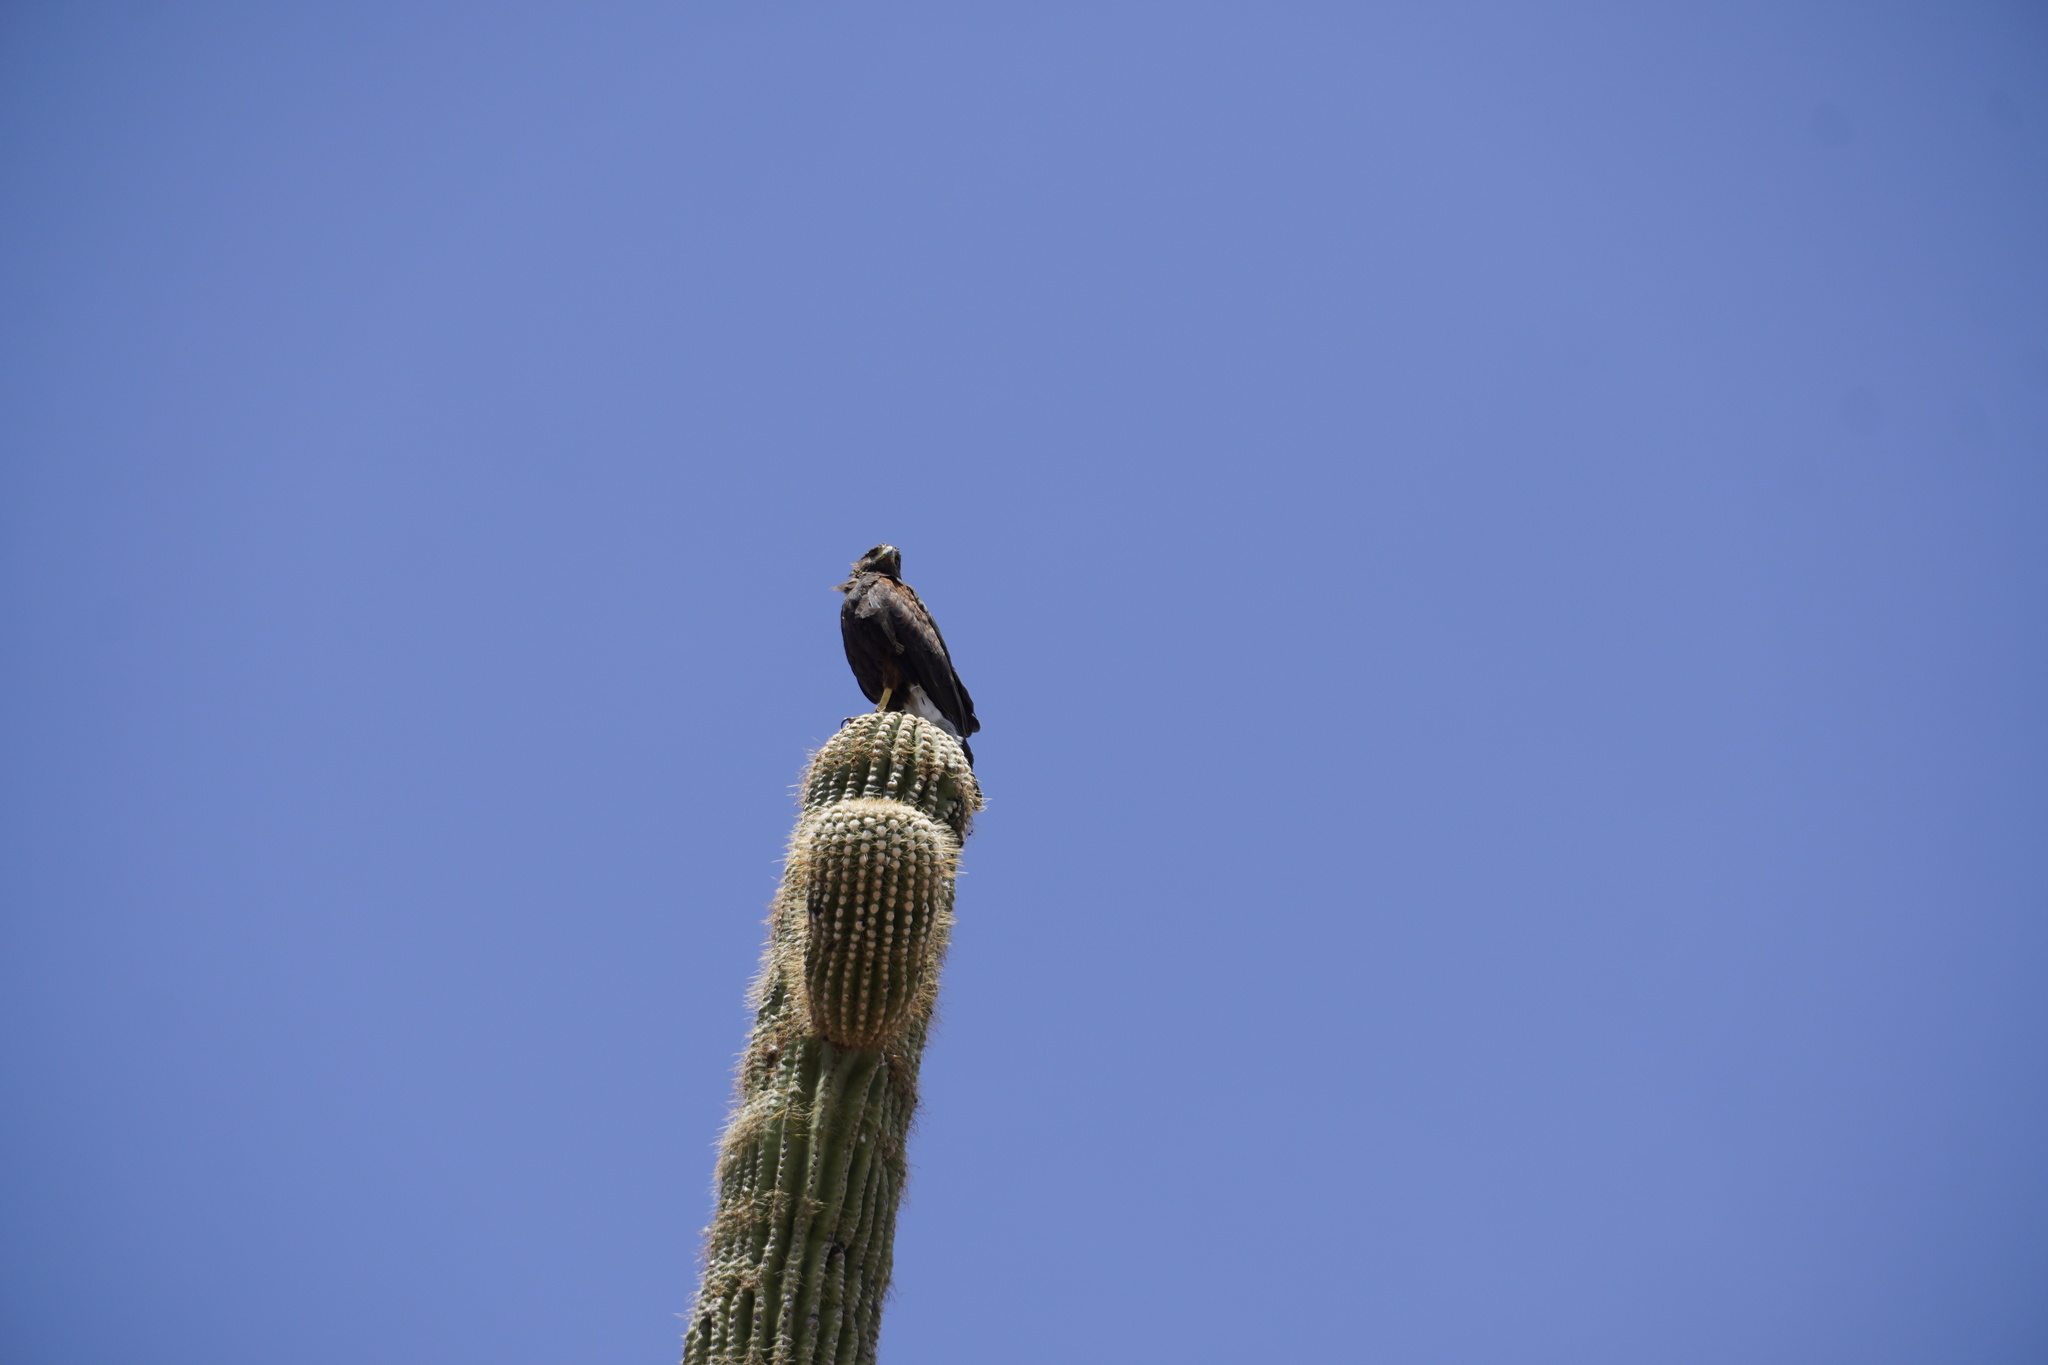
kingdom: Animalia
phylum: Chordata
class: Aves
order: Accipitriformes
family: Accipitridae
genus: Parabuteo
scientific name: Parabuteo unicinctus
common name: Harris's hawk
